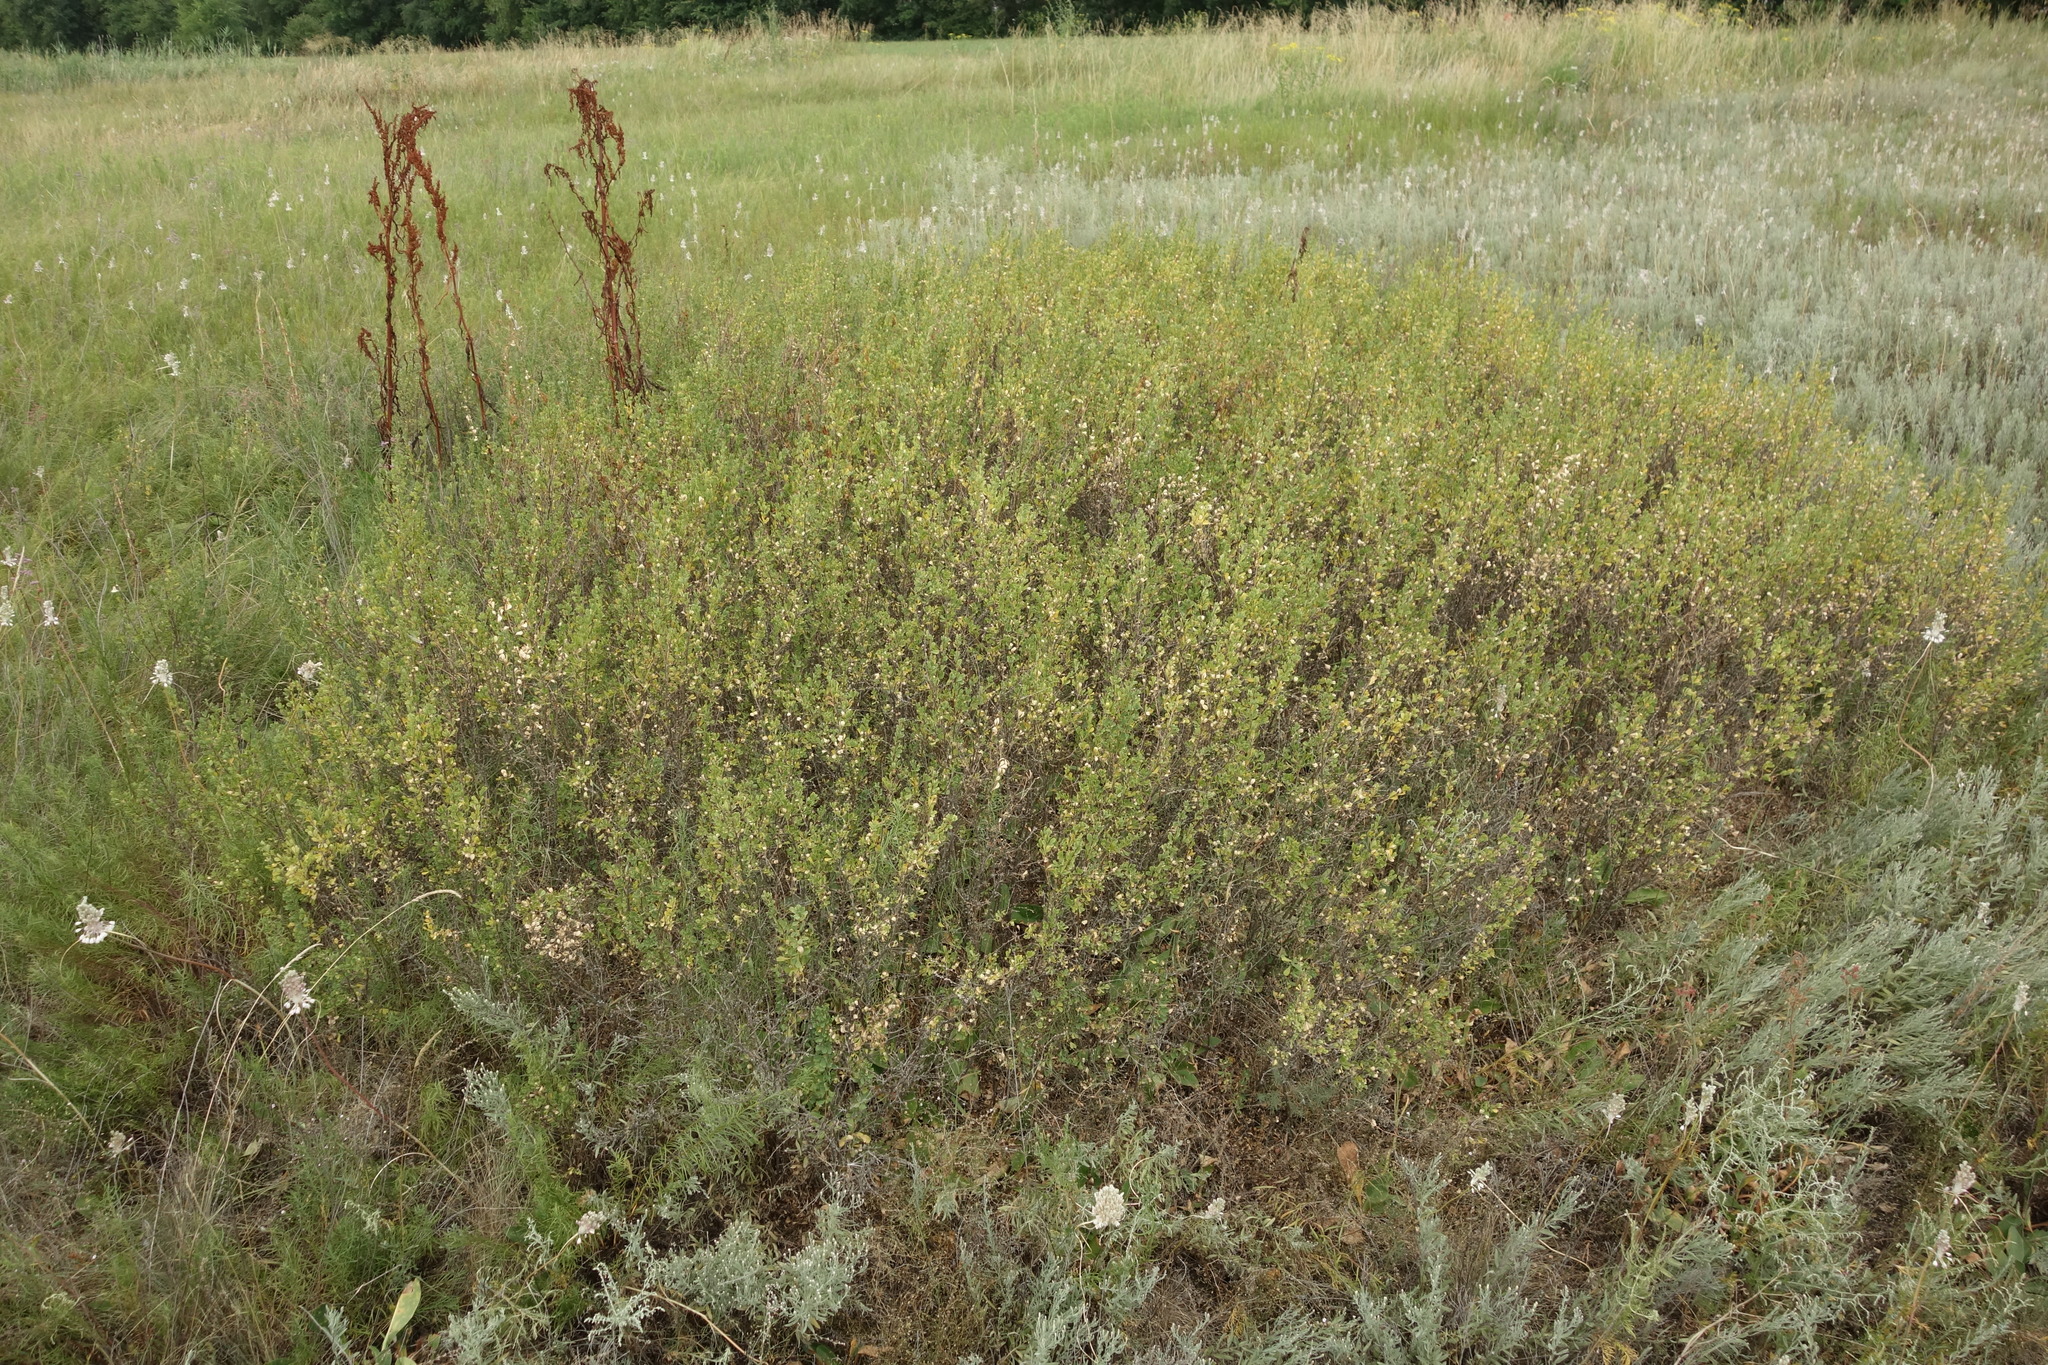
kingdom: Plantae
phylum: Tracheophyta
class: Magnoliopsida
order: Fabales
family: Fabaceae
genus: Caragana
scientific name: Caragana frutex
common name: Russian peashrub
